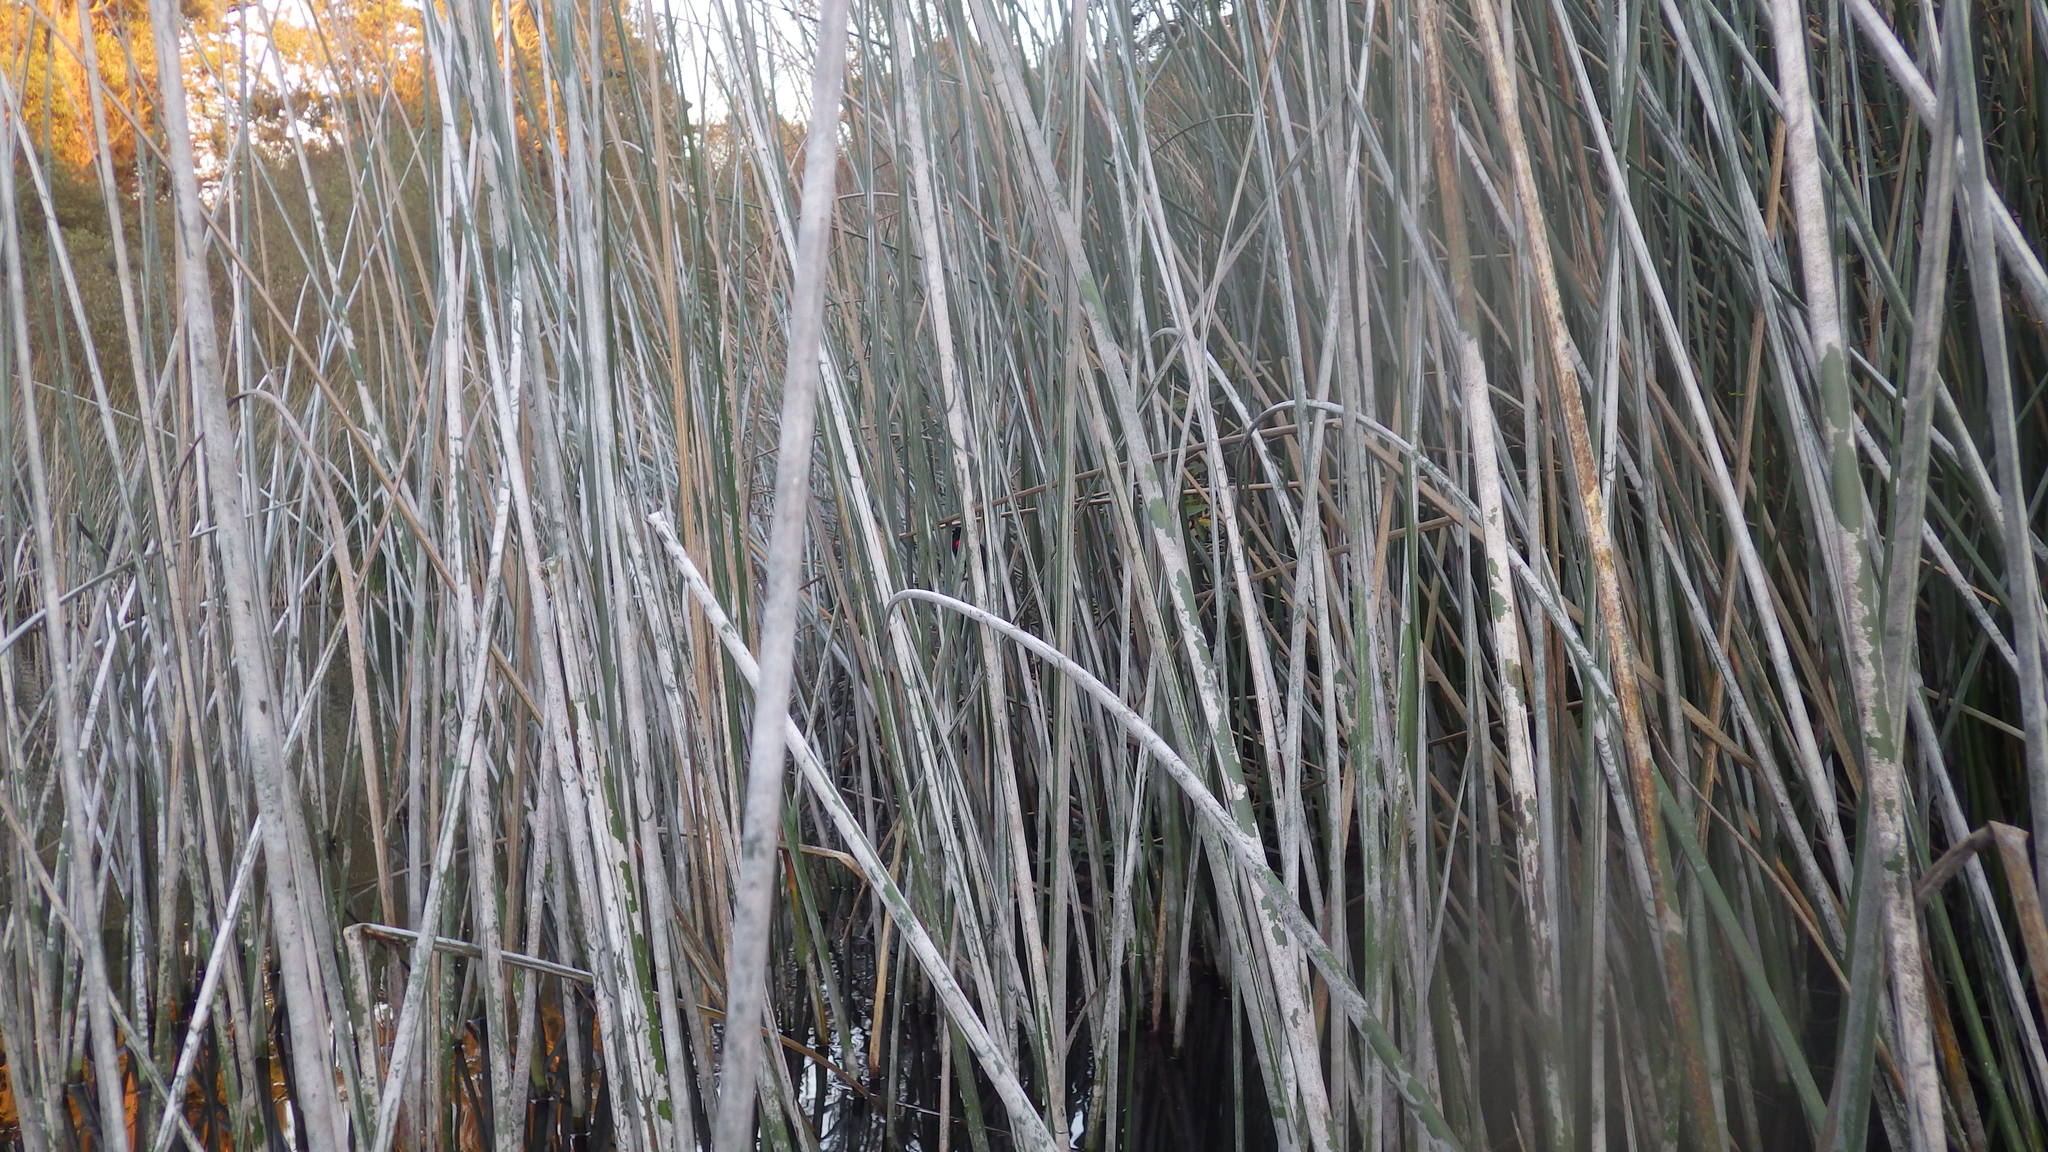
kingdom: Animalia
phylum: Chordata
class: Aves
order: Passeriformes
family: Icteridae
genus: Agelaius
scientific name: Agelaius phoeniceus
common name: Red-winged blackbird
